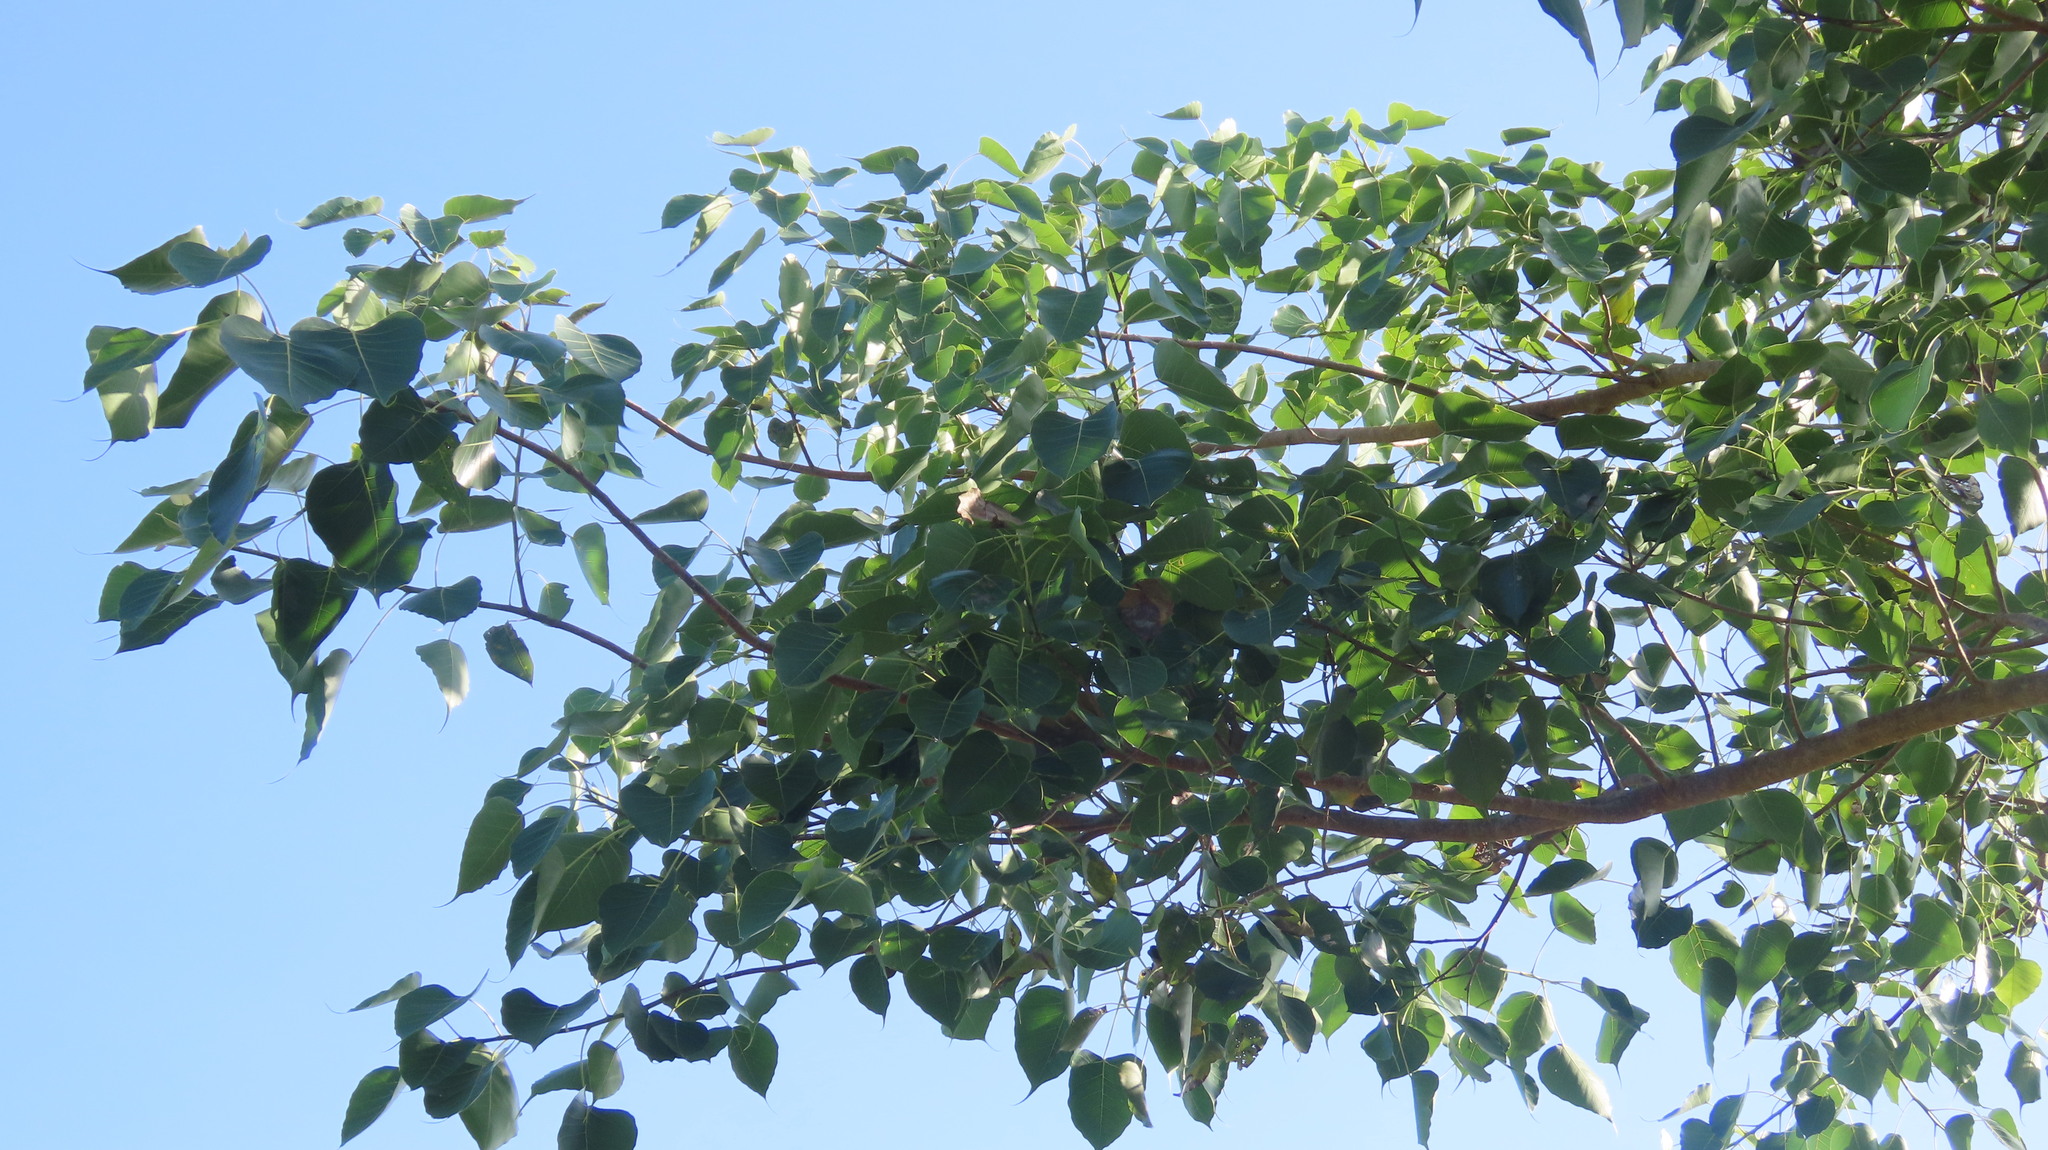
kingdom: Plantae
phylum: Tracheophyta
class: Magnoliopsida
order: Rosales
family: Moraceae
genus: Ficus
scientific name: Ficus religiosa
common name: Bodhi tree
